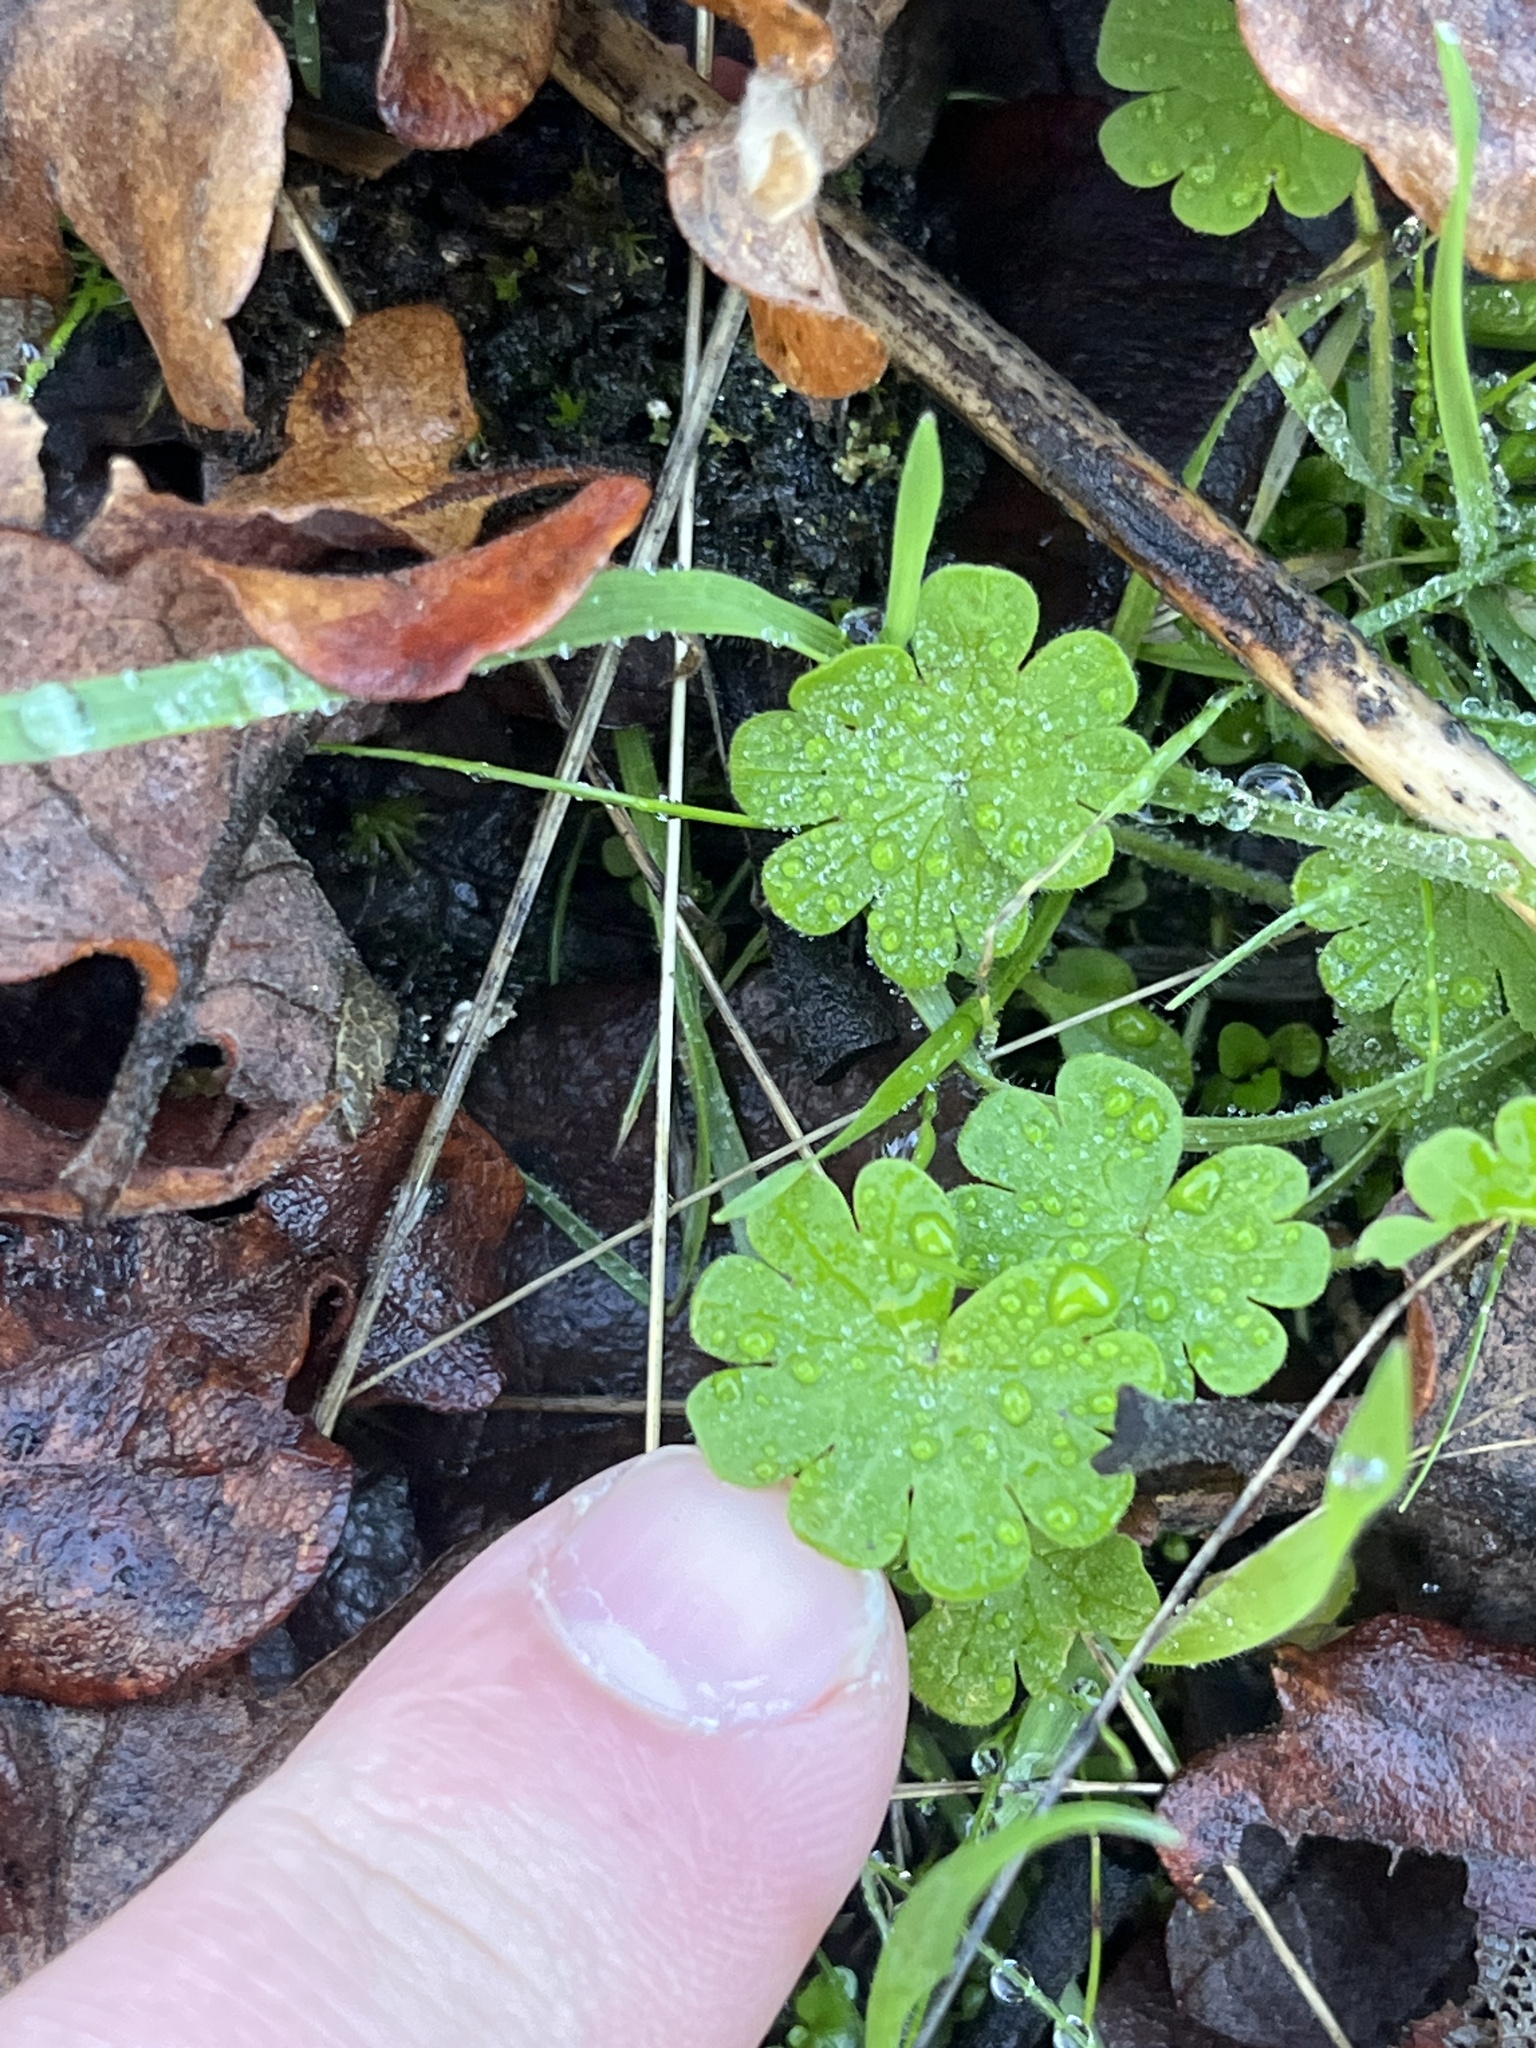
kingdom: Plantae
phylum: Tracheophyta
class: Magnoliopsida
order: Geraniales
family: Geraniaceae
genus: Geranium
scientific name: Geranium molle
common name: Dove's-foot crane's-bill
